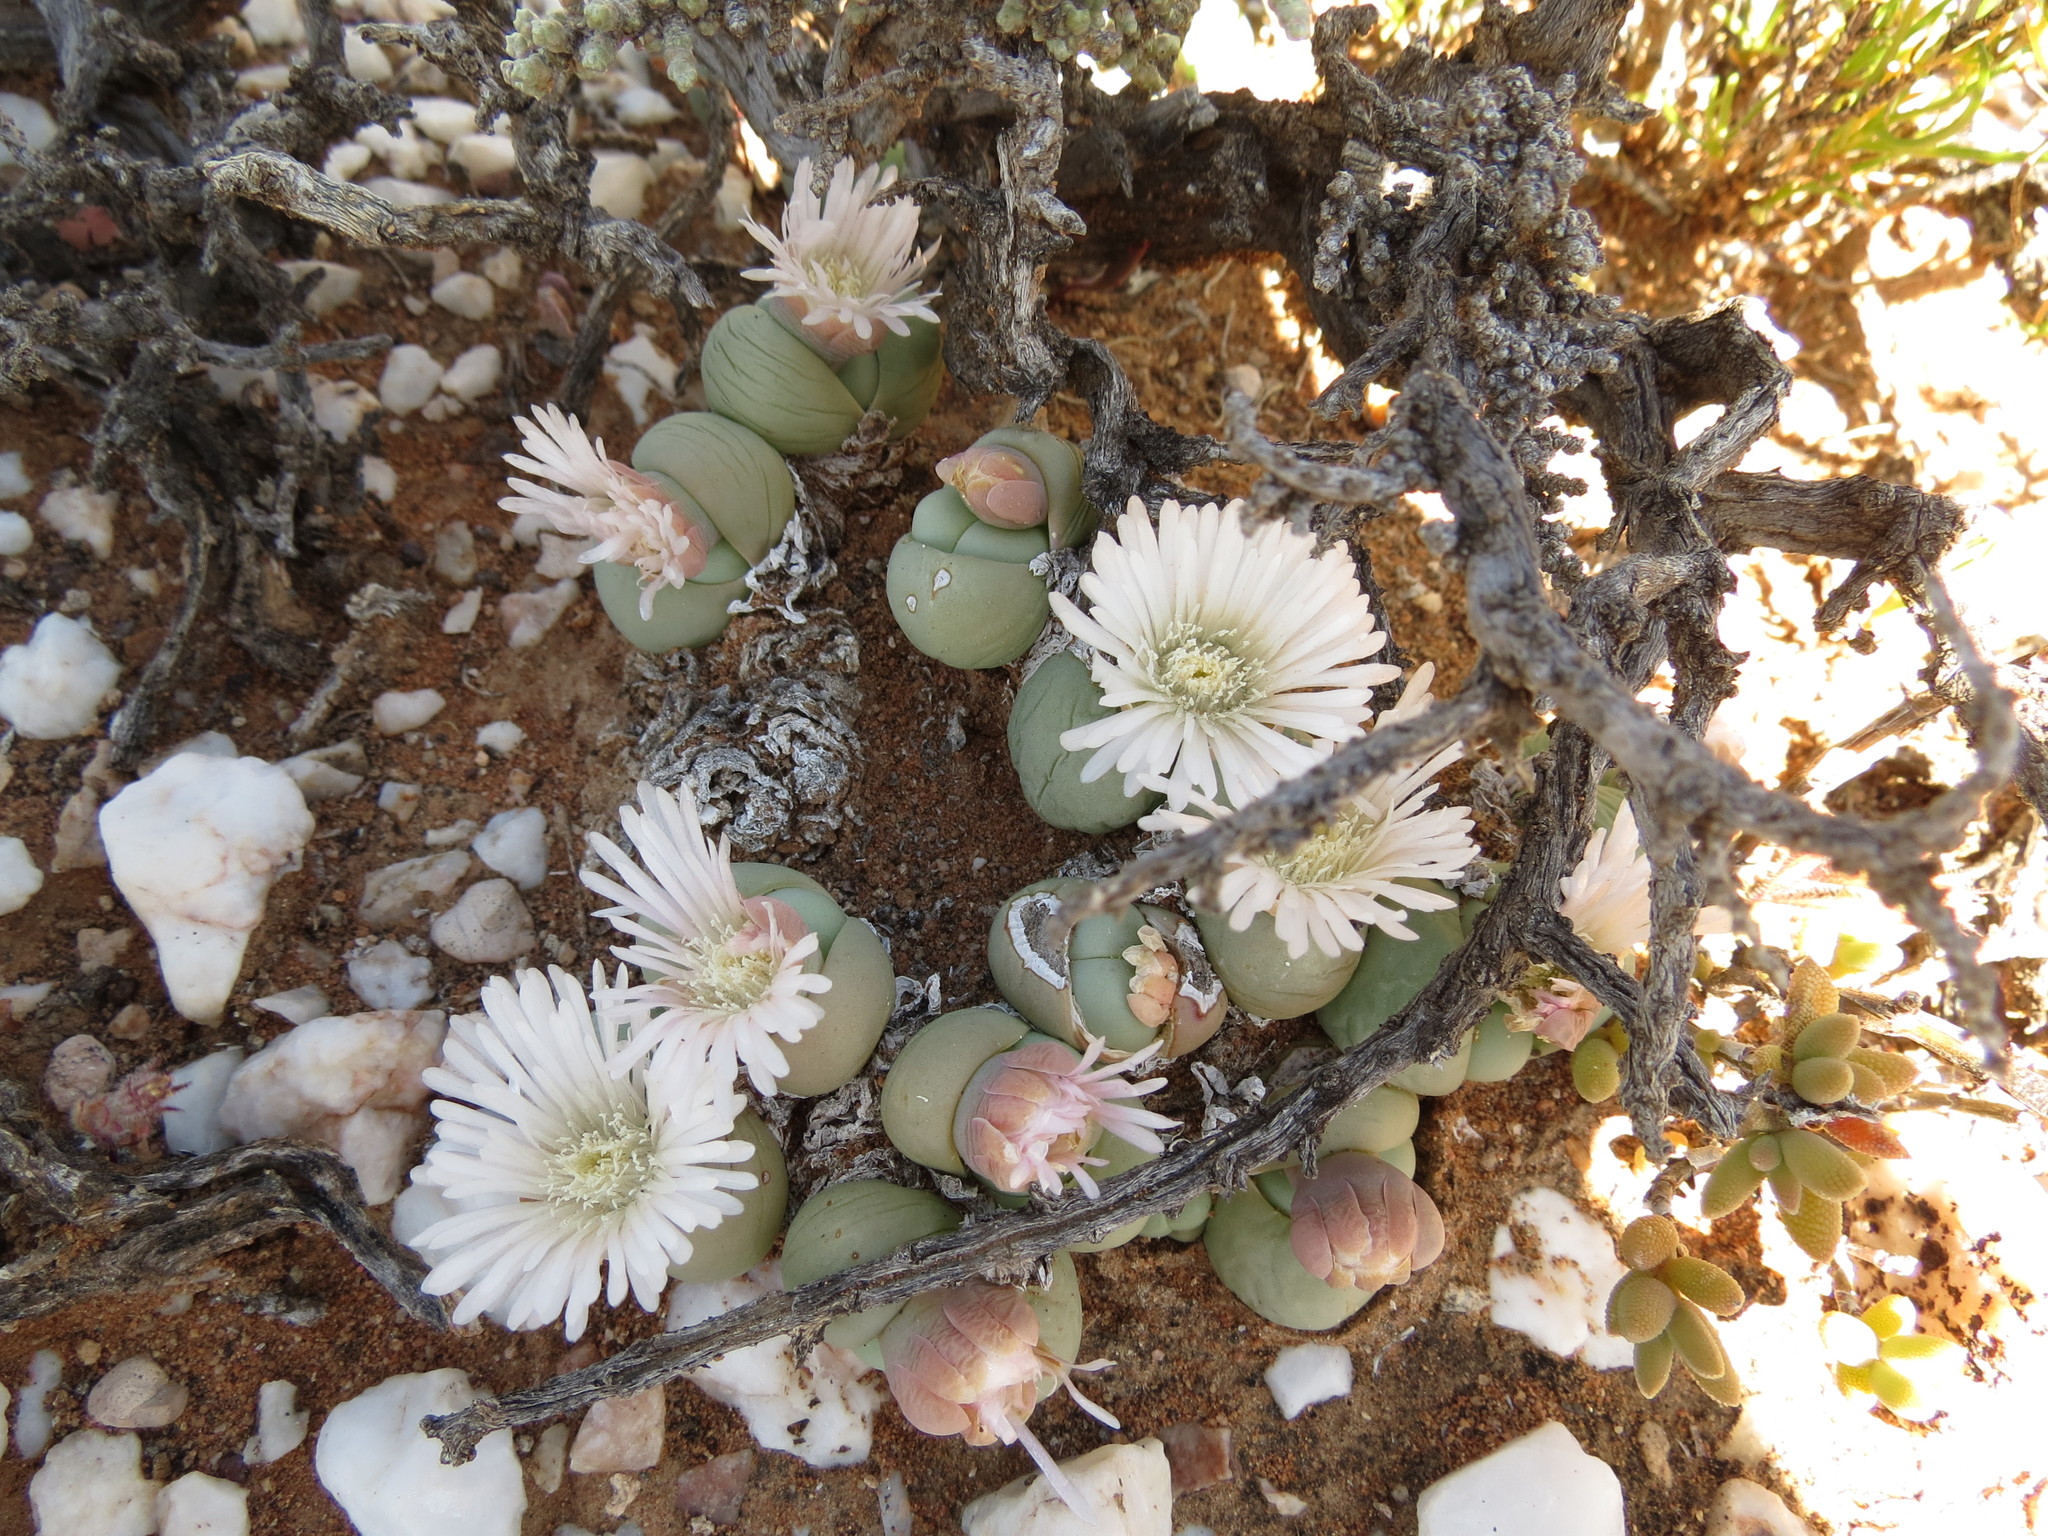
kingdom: Plantae
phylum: Tracheophyta
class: Magnoliopsida
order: Caryophyllales
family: Aizoaceae
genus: Gibbaeum
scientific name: Gibbaeum heathii
